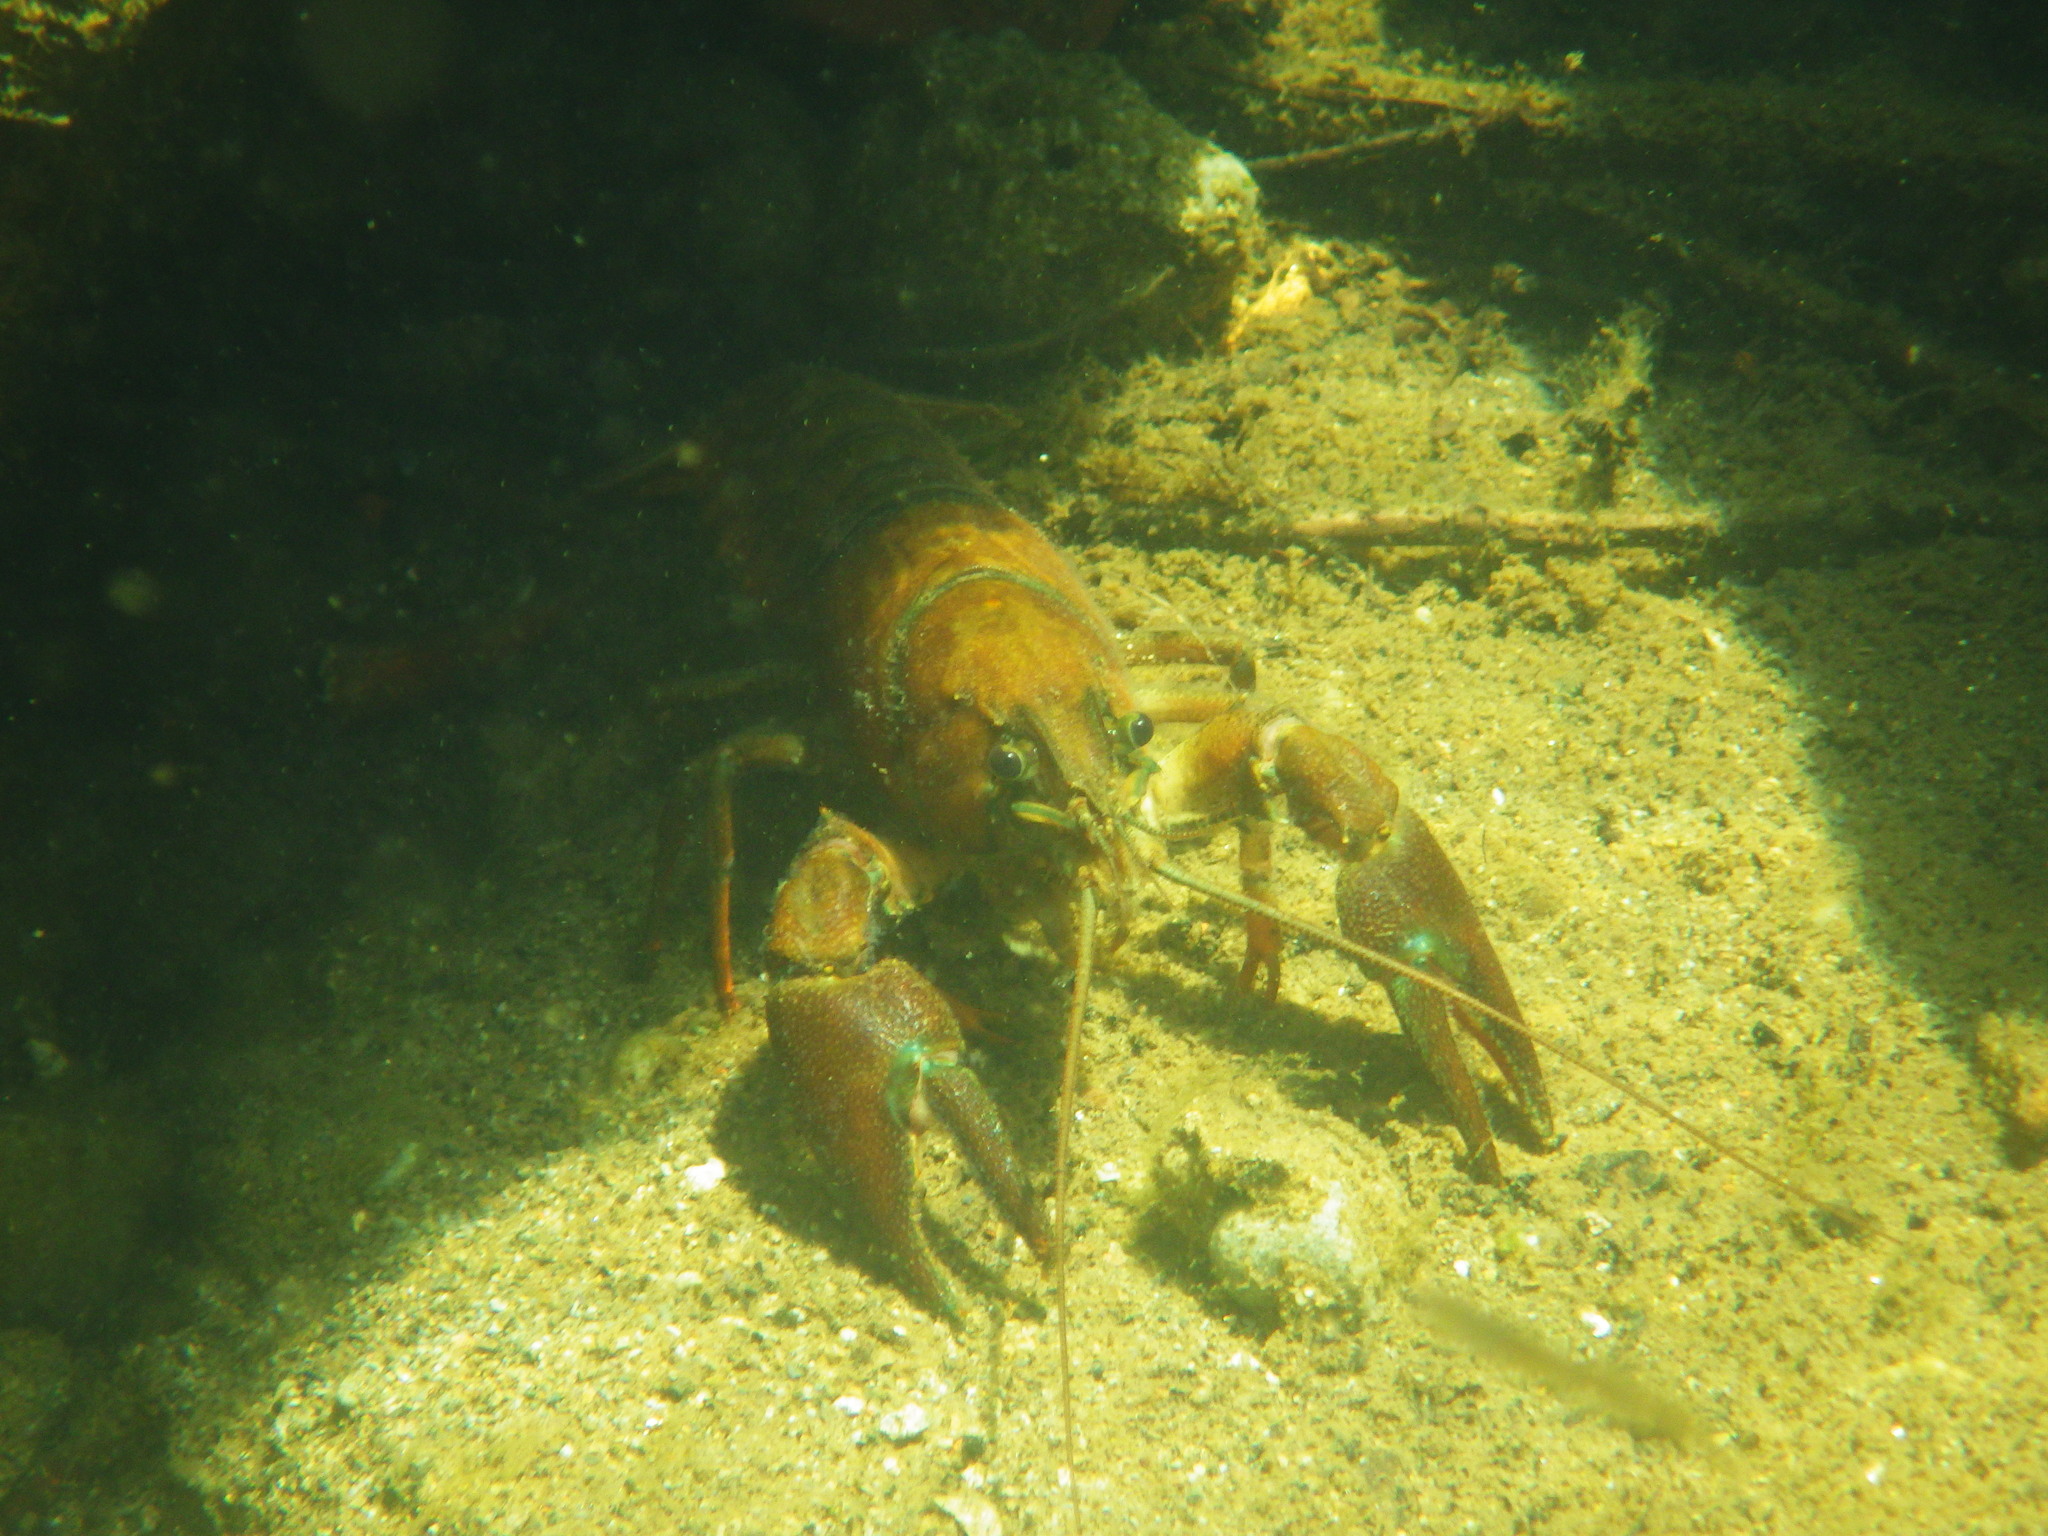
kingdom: Animalia
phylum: Arthropoda
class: Malacostraca
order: Decapoda
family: Astacidae
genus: Pacifastacus
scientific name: Pacifastacus leniusculus
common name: Signal crayfish
